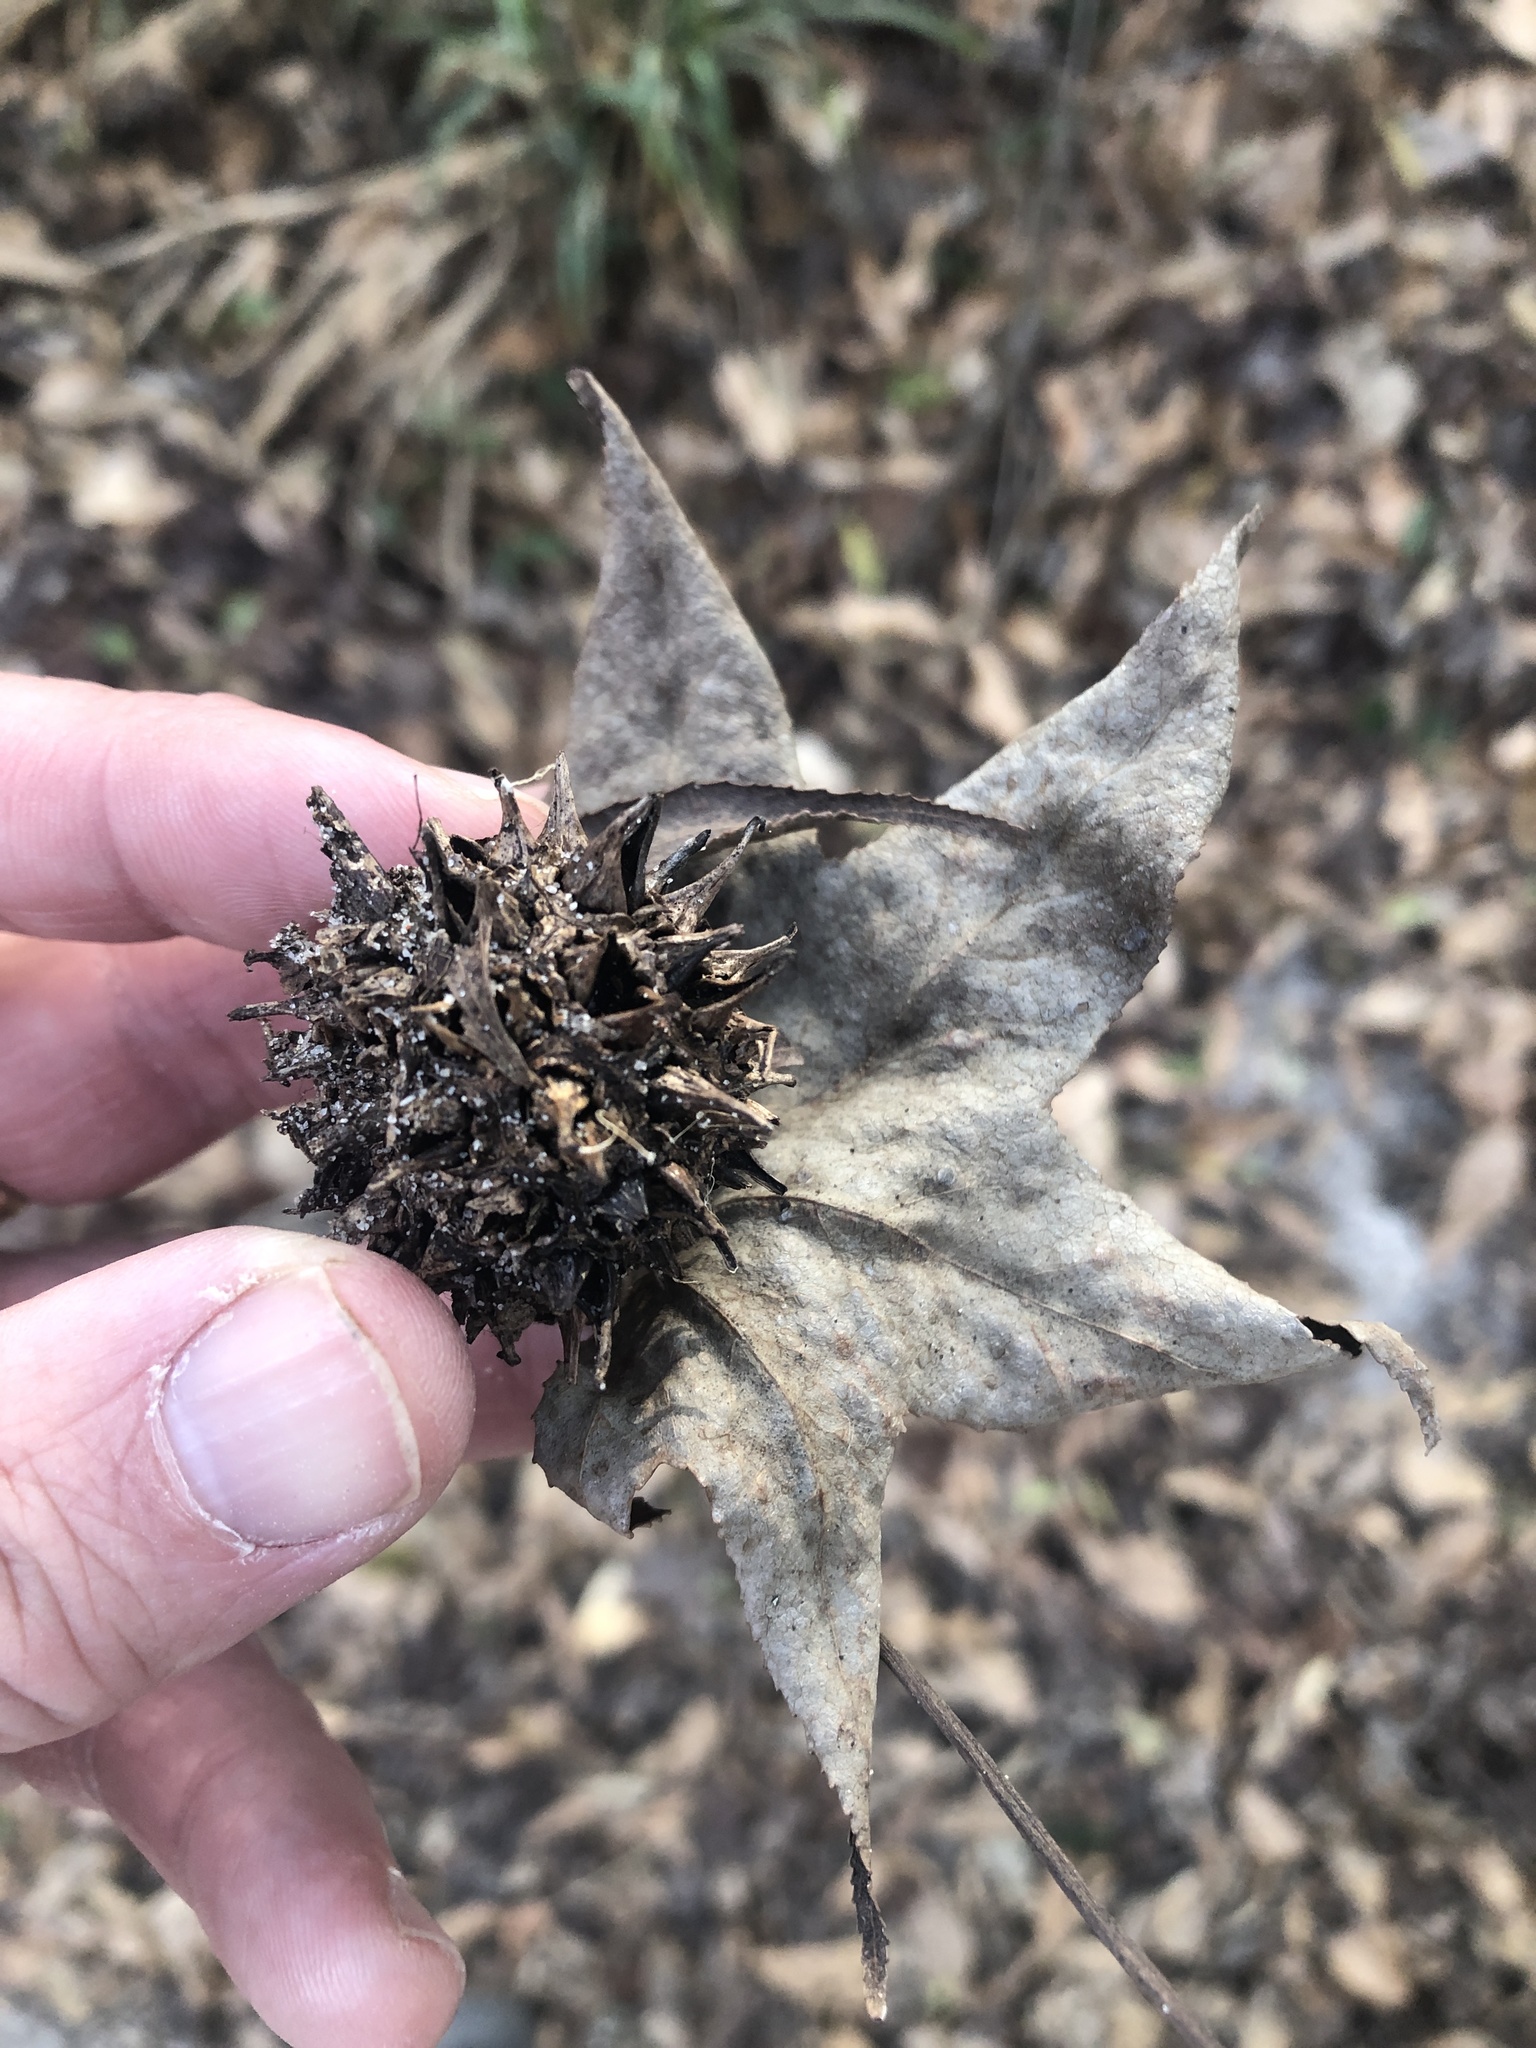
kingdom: Plantae
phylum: Tracheophyta
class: Magnoliopsida
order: Saxifragales
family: Altingiaceae
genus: Liquidambar
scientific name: Liquidambar styraciflua
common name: Sweet gum
